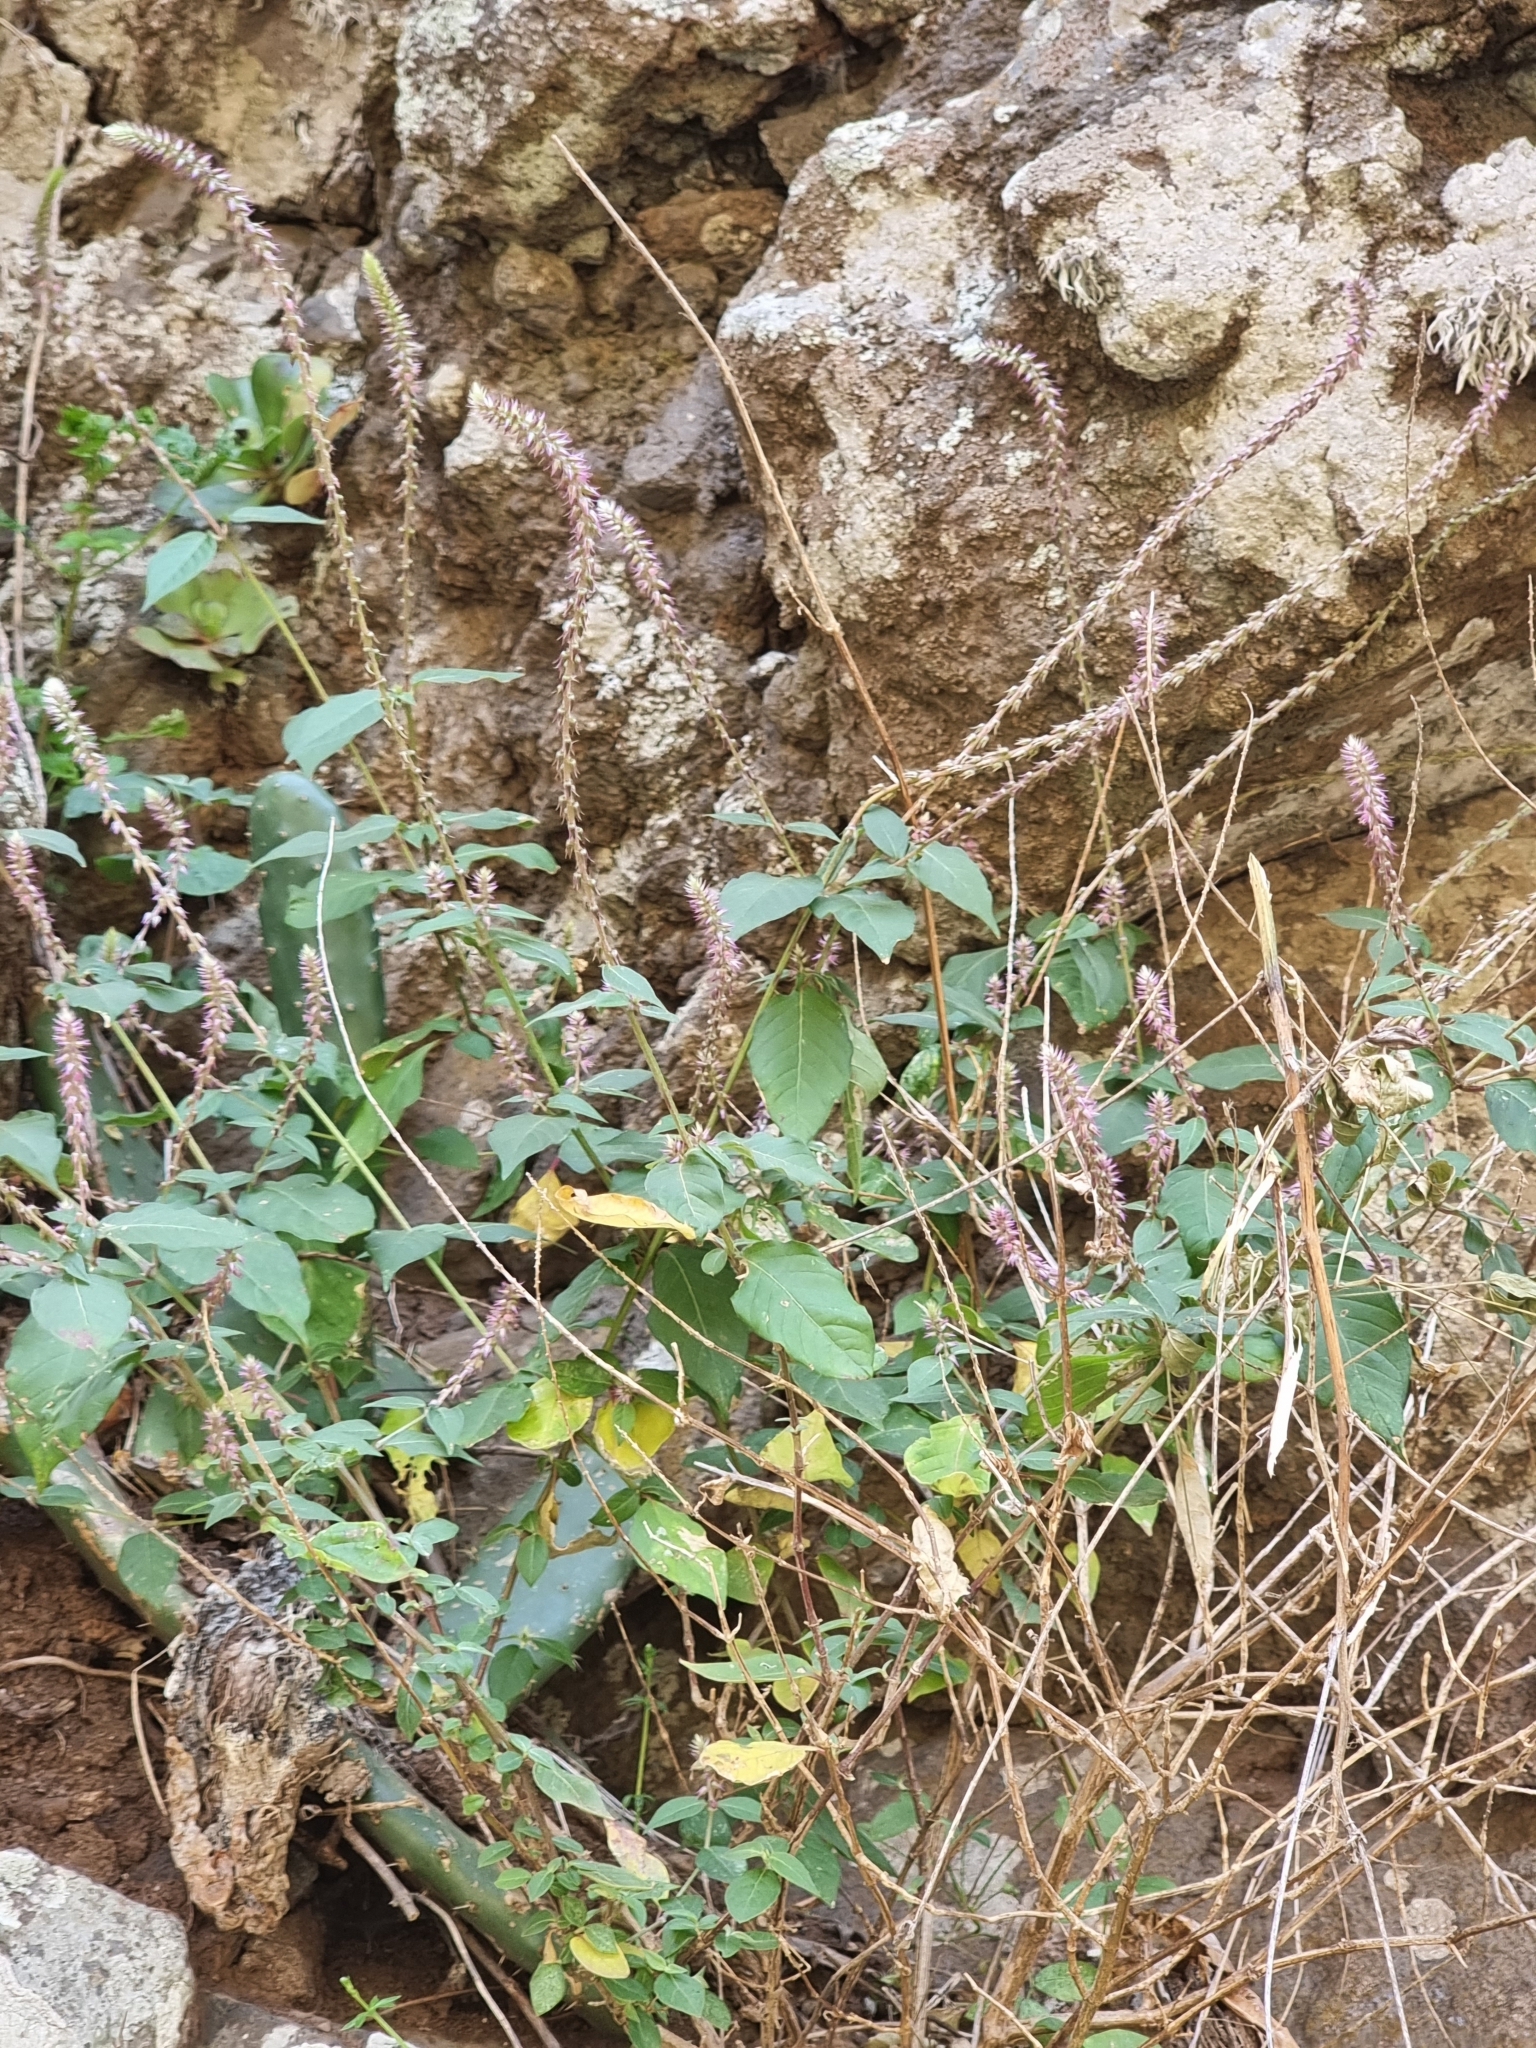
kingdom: Plantae
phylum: Tracheophyta
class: Magnoliopsida
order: Caryophyllales
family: Amaranthaceae
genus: Achyranthes
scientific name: Achyranthes aspera
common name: Devil's horsewhip
